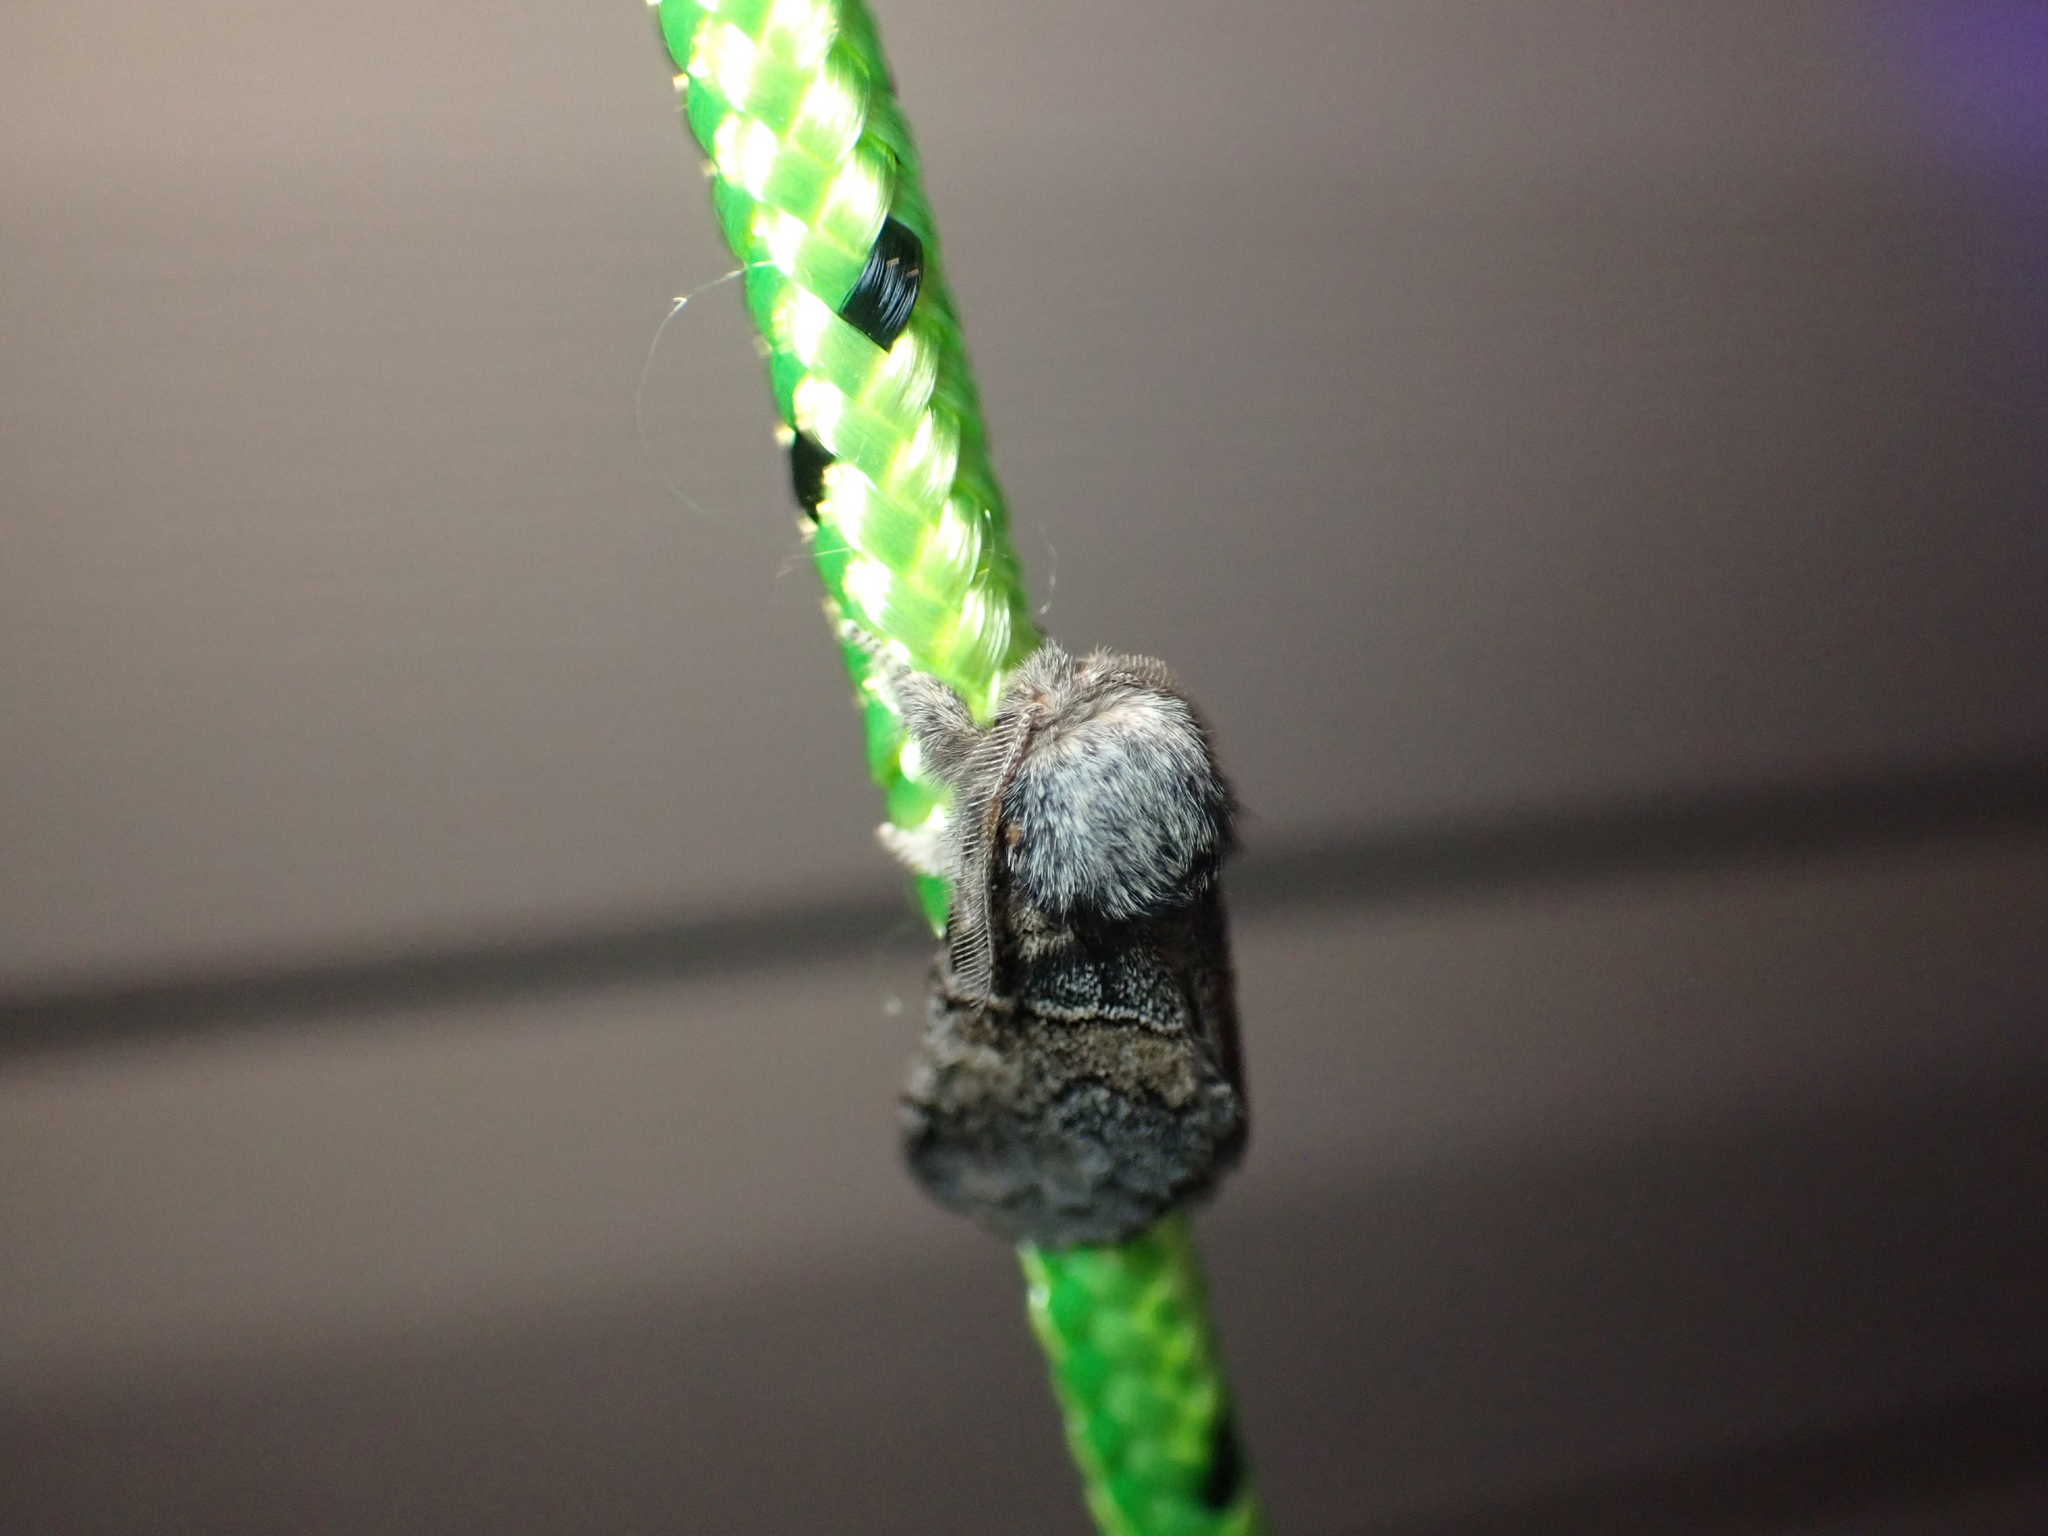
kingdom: Animalia
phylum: Arthropoda
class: Insecta
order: Lepidoptera
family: Notodontidae
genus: Gluphisia
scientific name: Gluphisia septentrionis
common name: Common gluphisia
